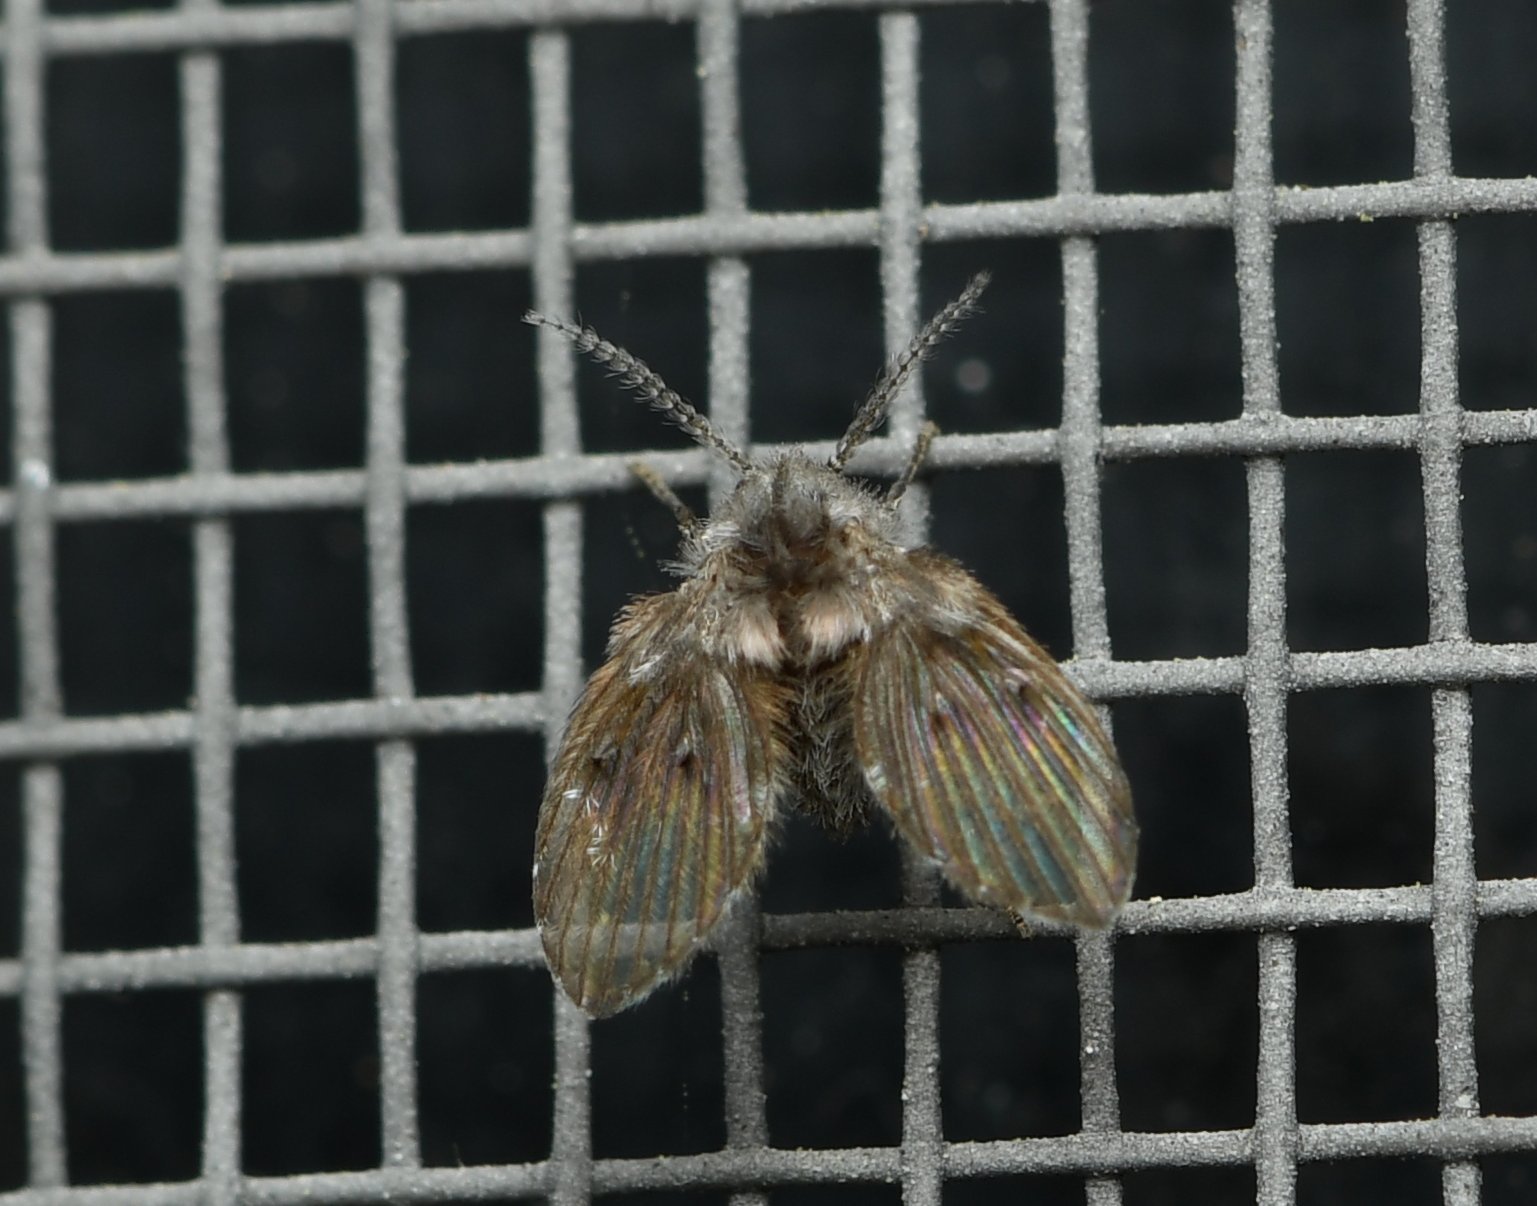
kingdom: Animalia
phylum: Arthropoda
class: Insecta
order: Diptera
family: Psychodidae
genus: Clogmia
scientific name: Clogmia albipunctatus
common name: White-spotted moth fly
